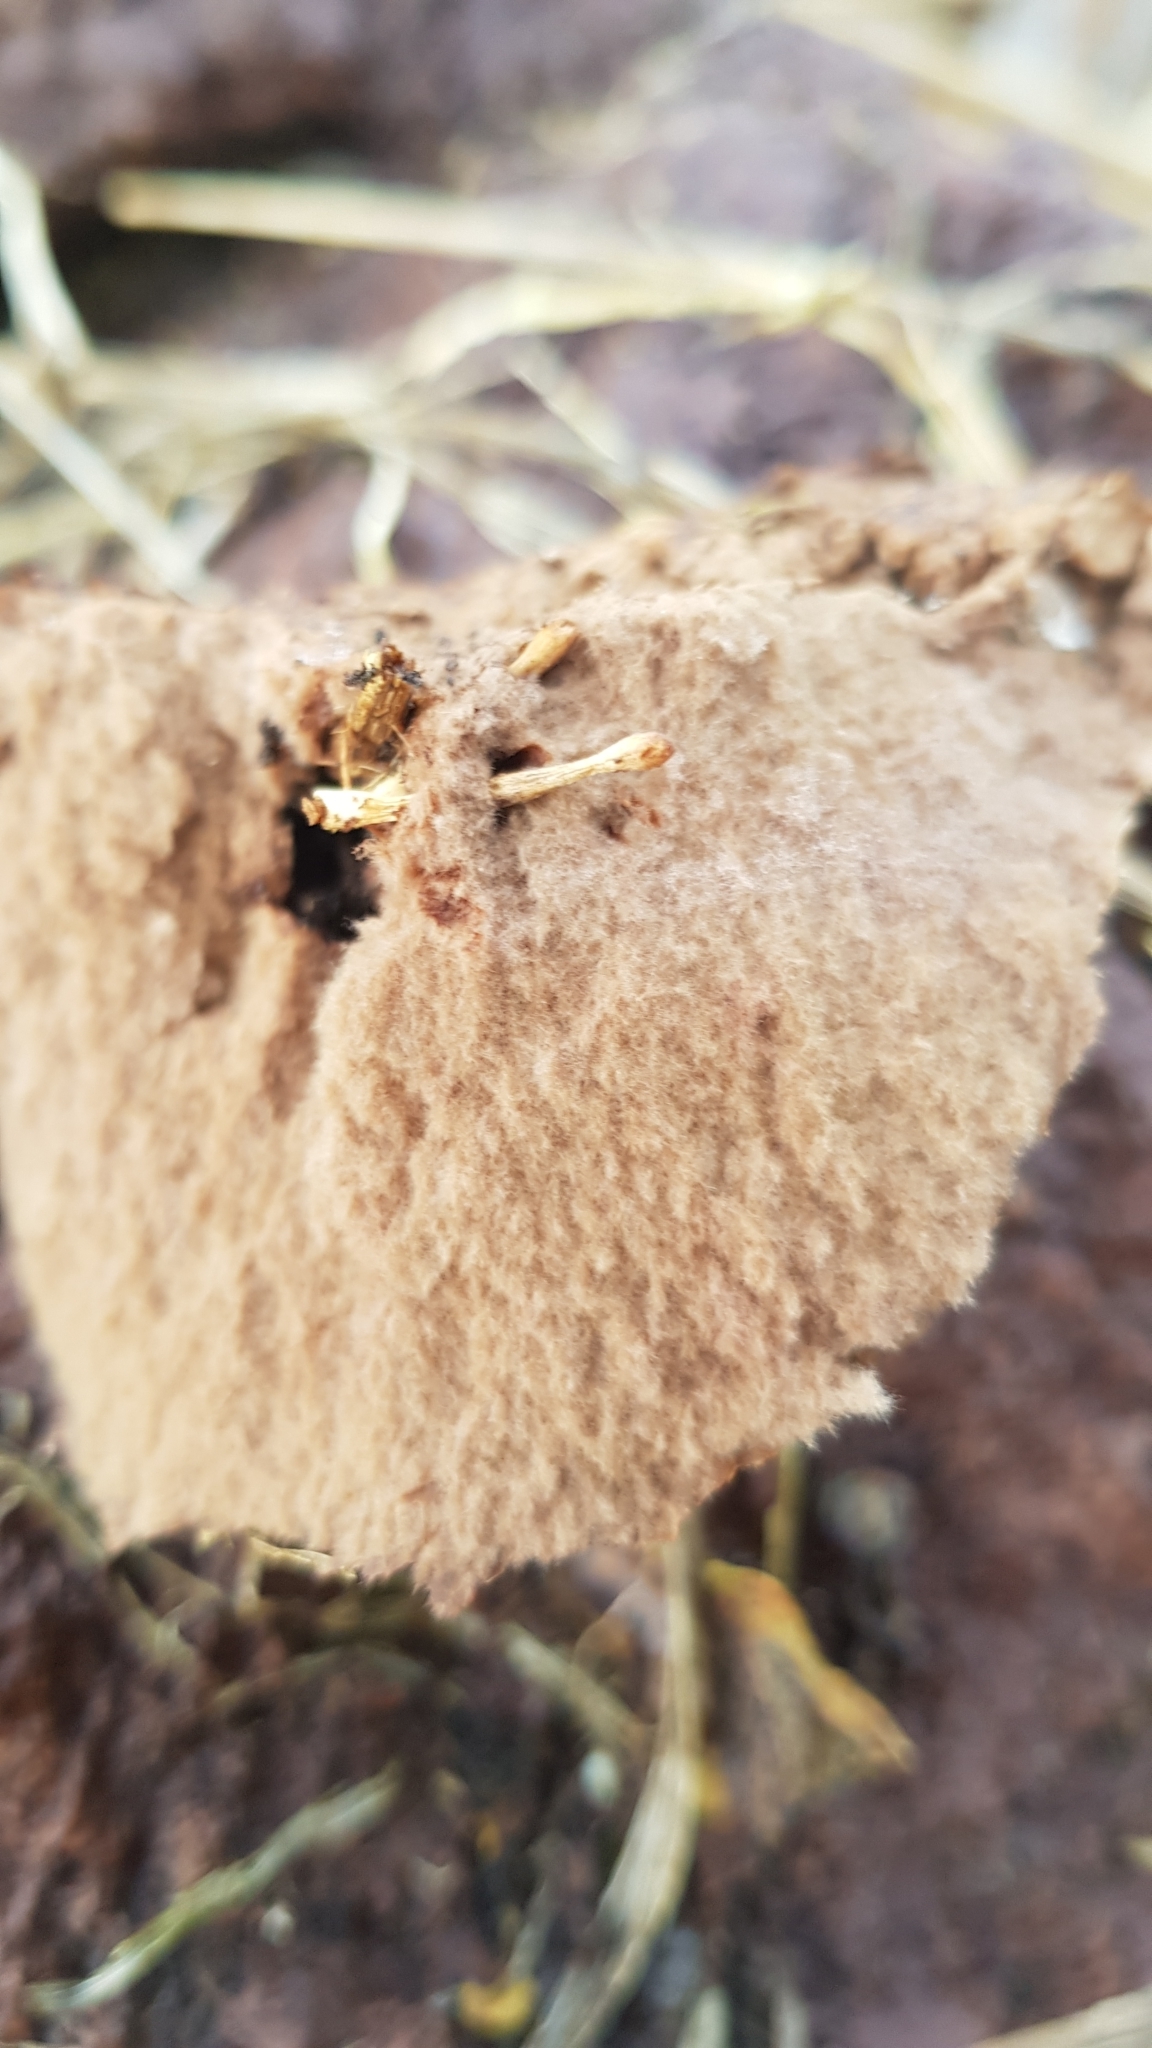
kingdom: Fungi
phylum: Basidiomycota
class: Agaricomycetes
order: Agaricales
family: Lycoperdaceae
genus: Calvatia
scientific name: Calvatia gigantea
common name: Giant puffball
